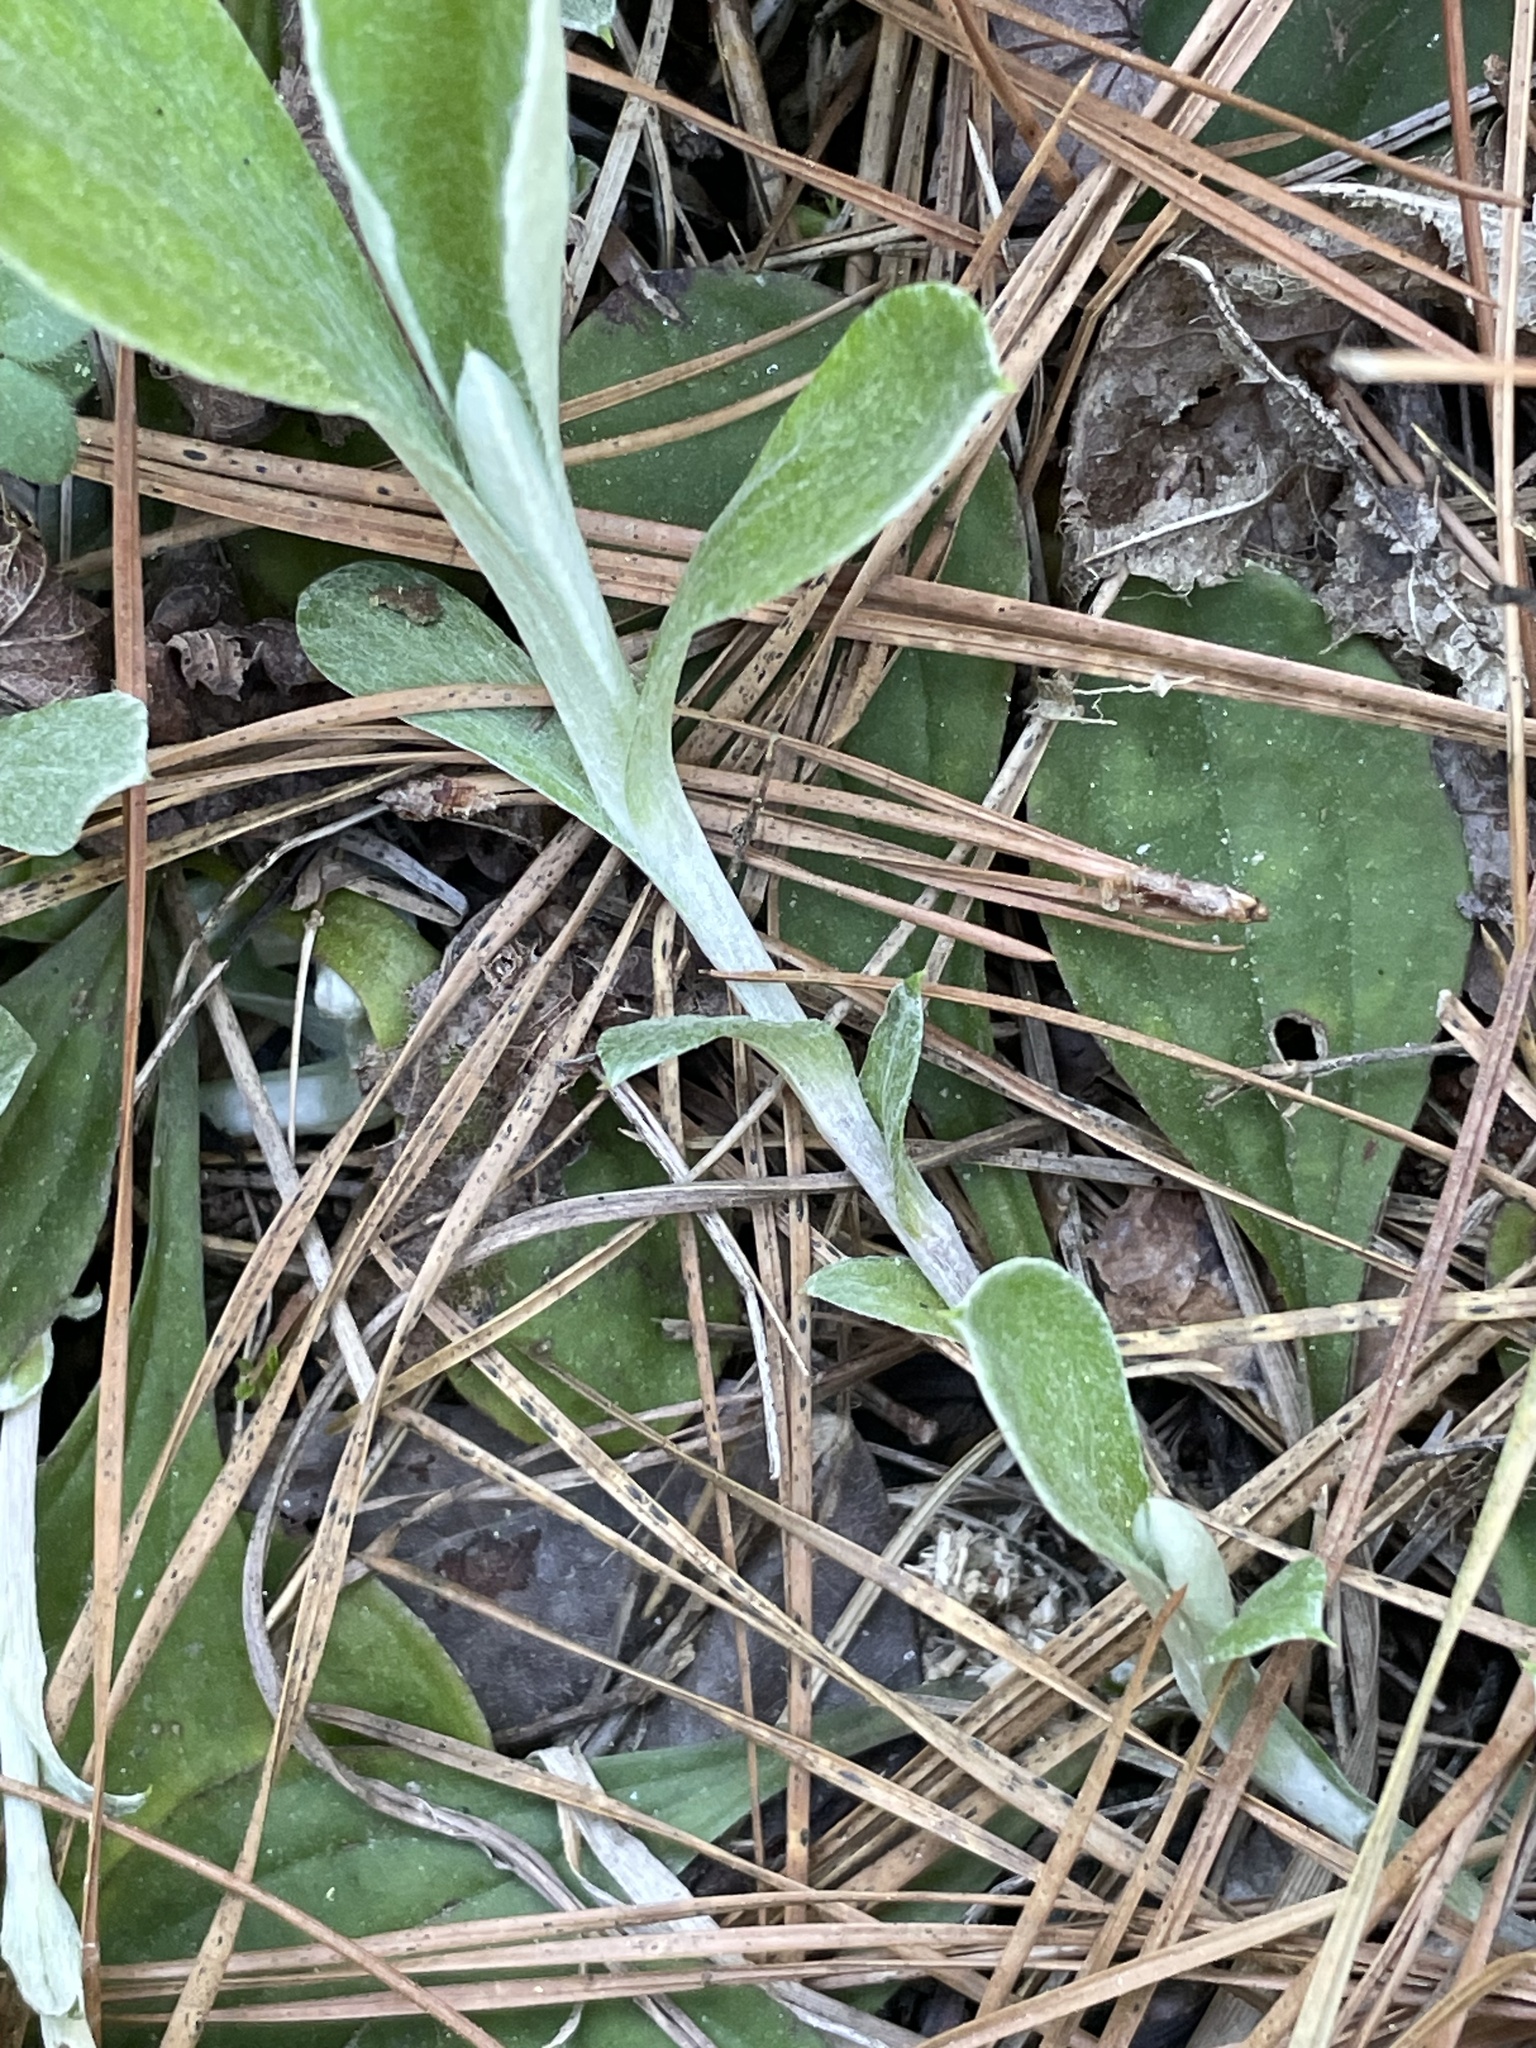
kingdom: Plantae
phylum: Tracheophyta
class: Magnoliopsida
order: Asterales
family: Asteraceae
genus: Antennaria
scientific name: Antennaria parlinii
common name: Parlin's pussytoes
